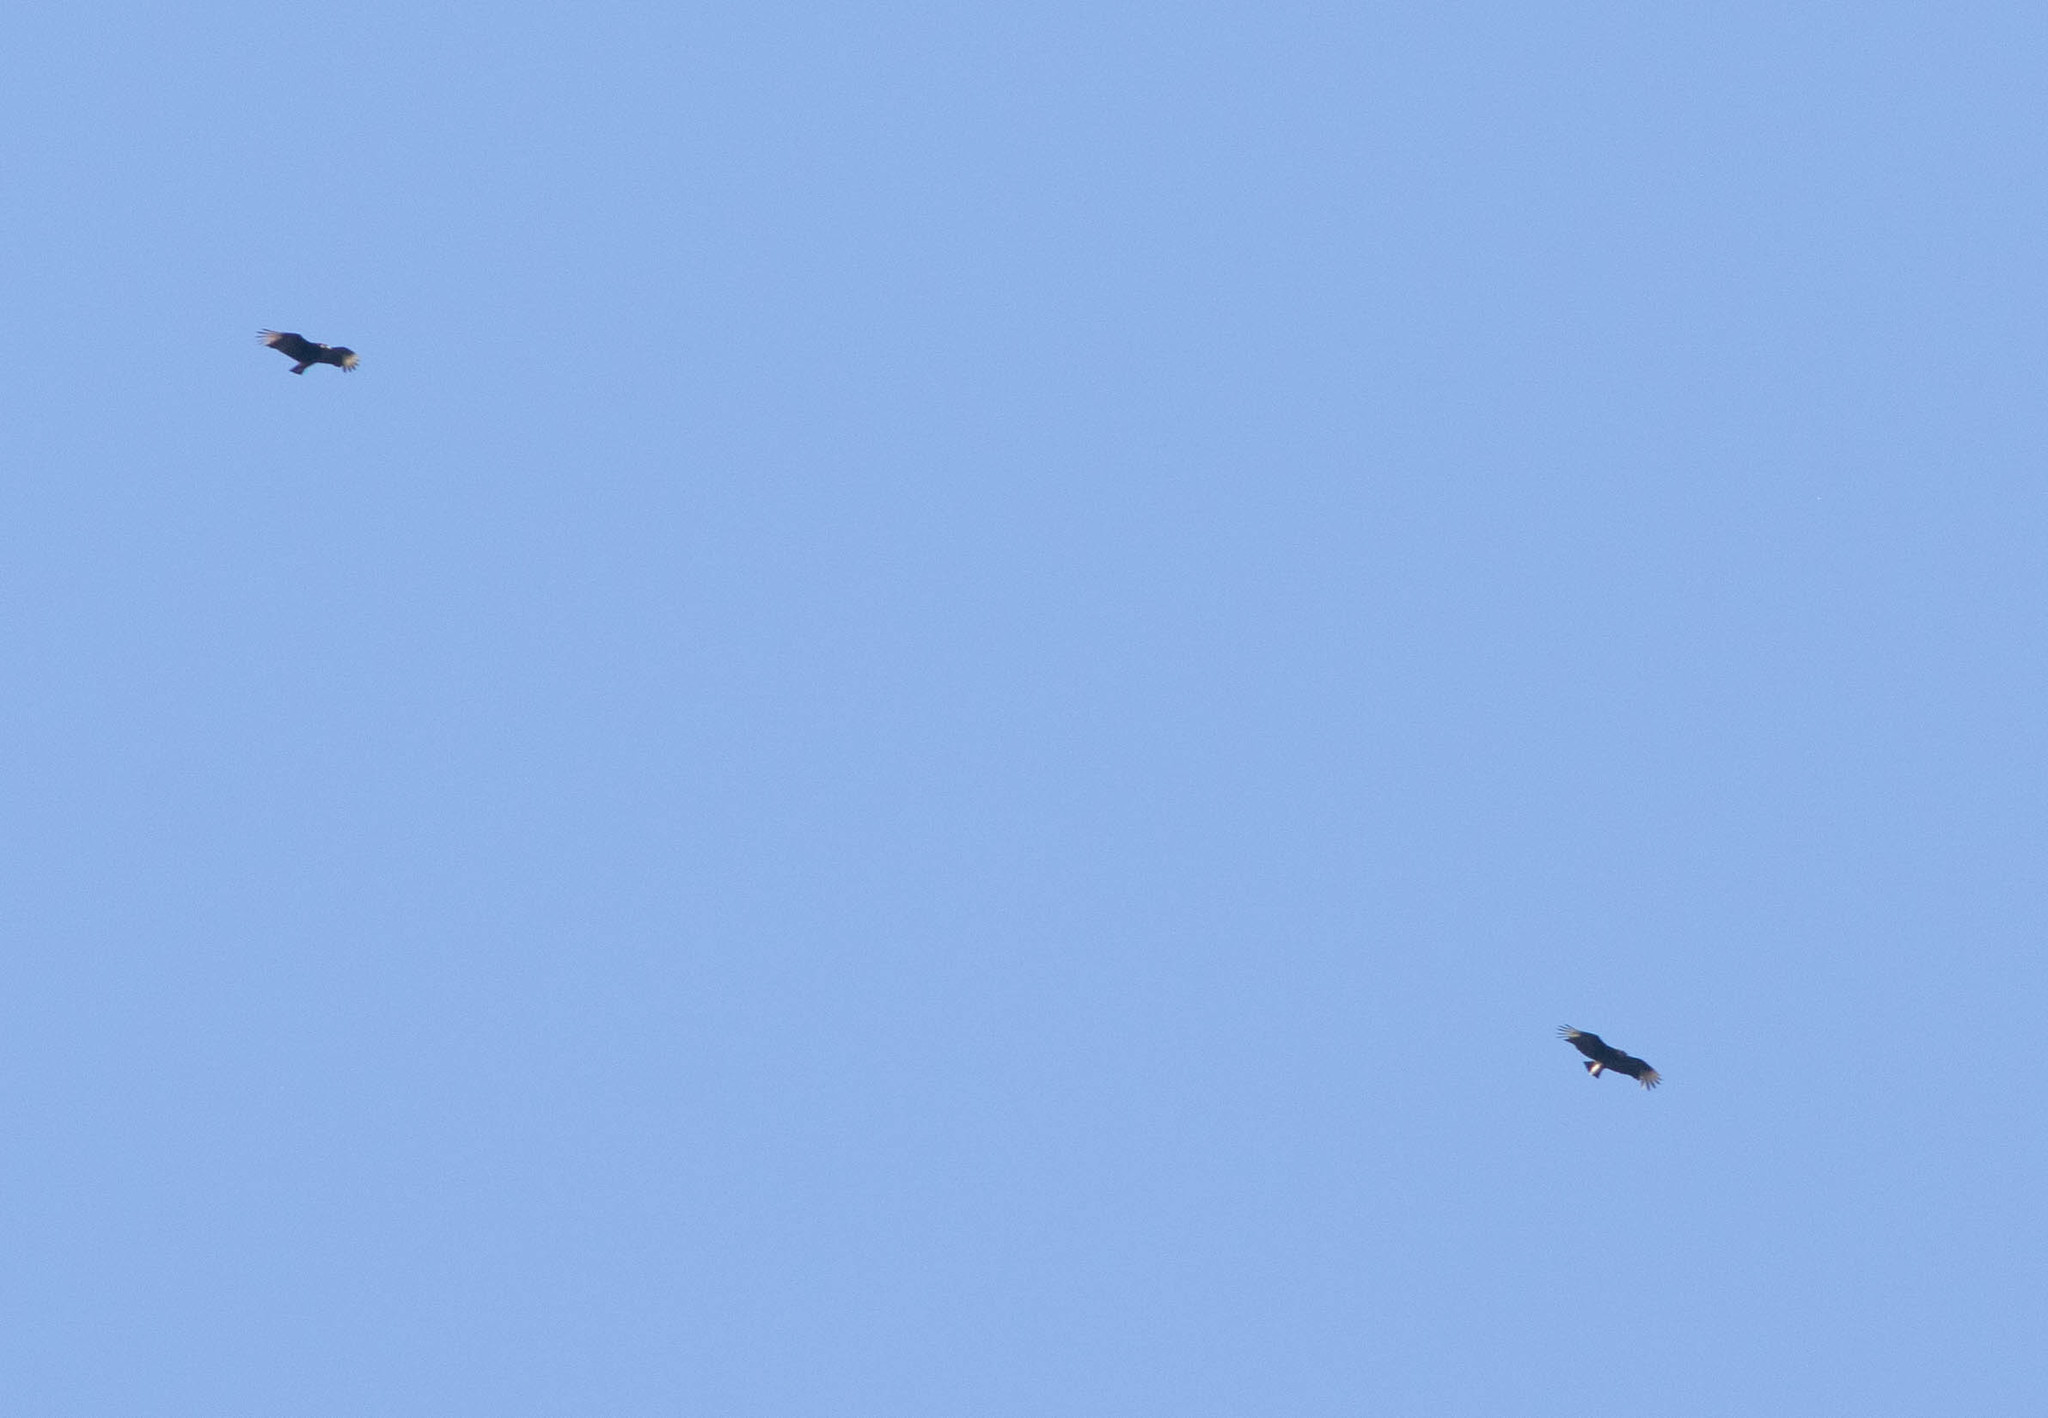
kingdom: Animalia
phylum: Chordata
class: Aves
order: Accipitriformes
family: Cathartidae
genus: Coragyps
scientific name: Coragyps atratus
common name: Black vulture
